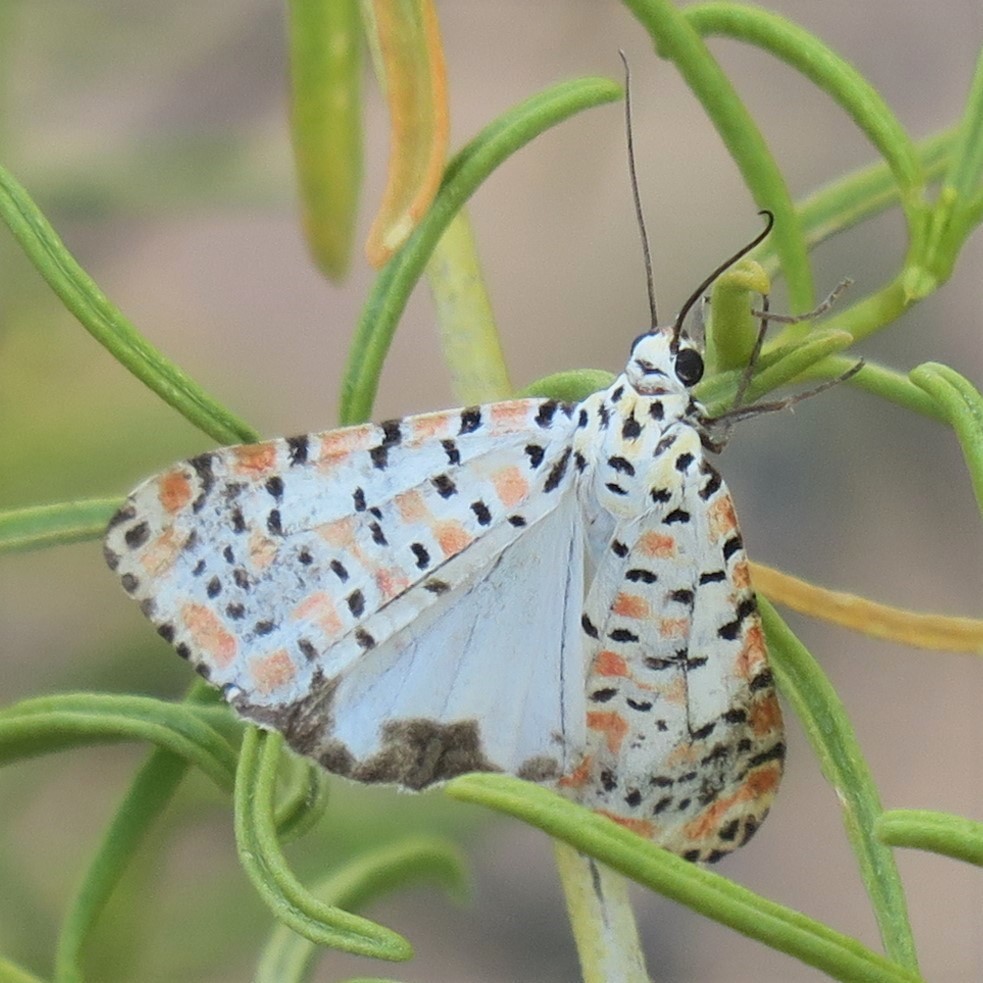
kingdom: Animalia
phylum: Arthropoda
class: Insecta
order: Lepidoptera
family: Erebidae
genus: Utetheisa
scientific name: Utetheisa pulchella
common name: Crimson speckled
